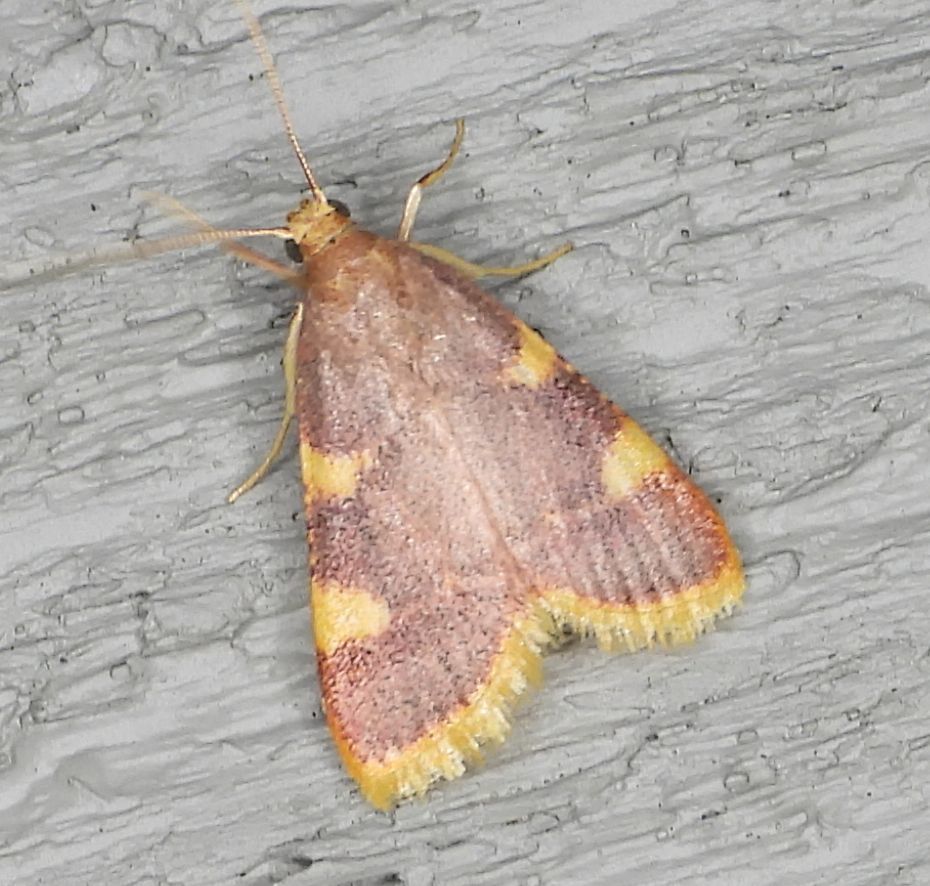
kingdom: Animalia
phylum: Arthropoda
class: Insecta
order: Lepidoptera
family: Pyralidae
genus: Hypsopygia
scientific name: Hypsopygia costalis
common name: Gold triangle
